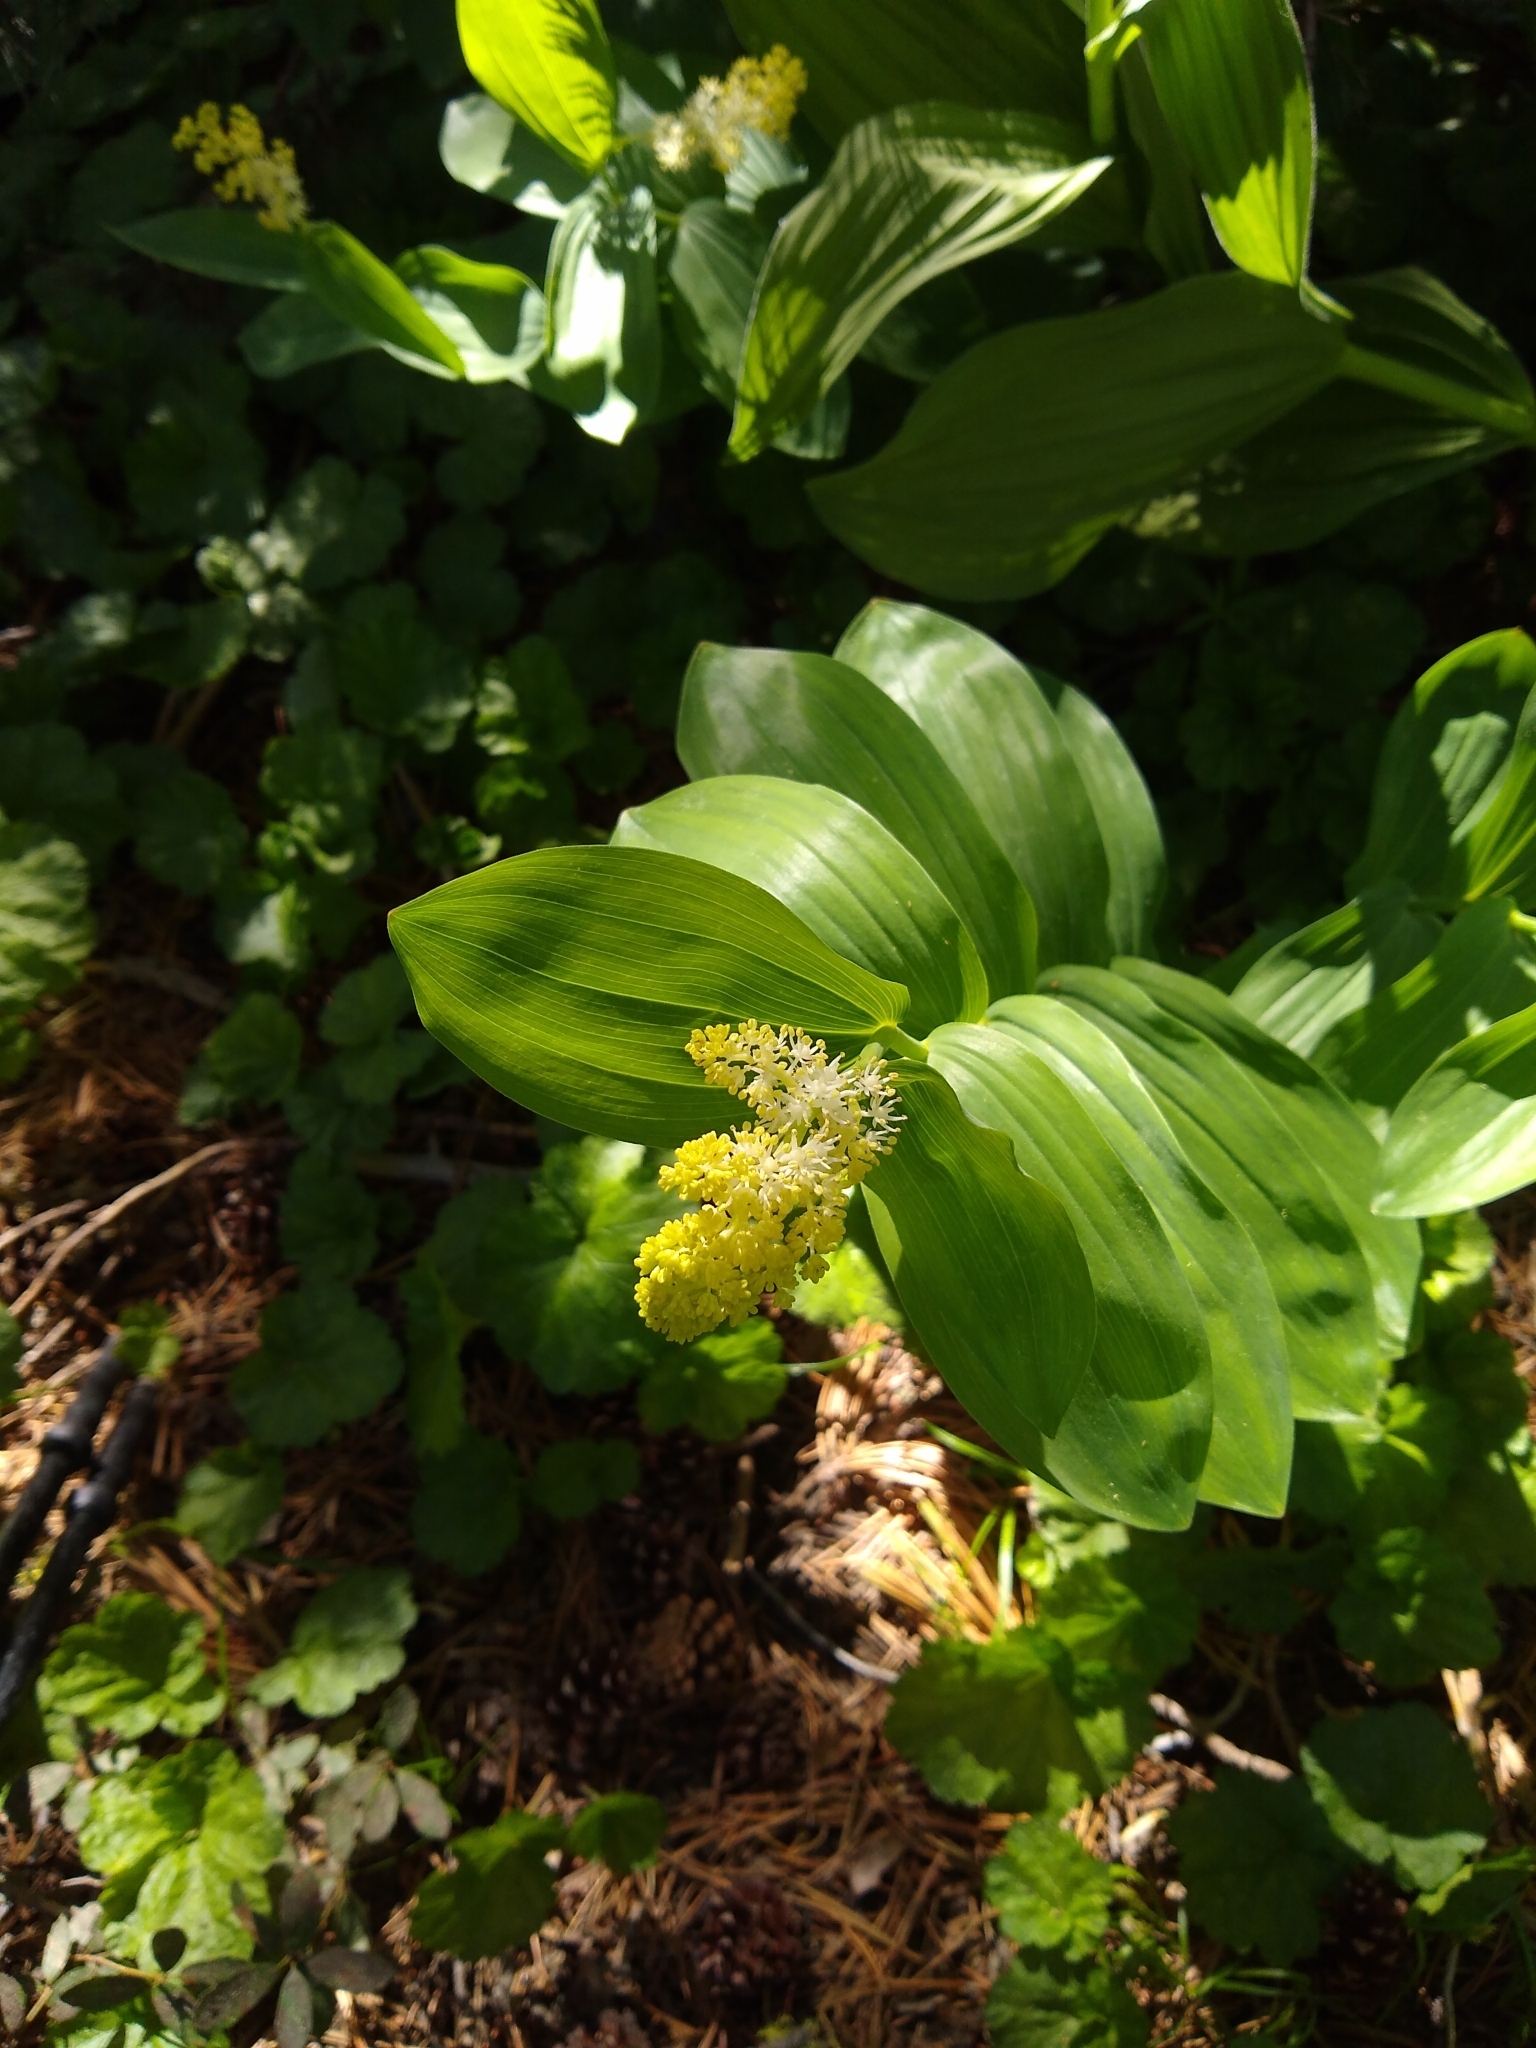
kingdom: Plantae
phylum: Tracheophyta
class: Liliopsida
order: Asparagales
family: Asparagaceae
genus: Maianthemum
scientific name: Maianthemum racemosum
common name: False spikenard
